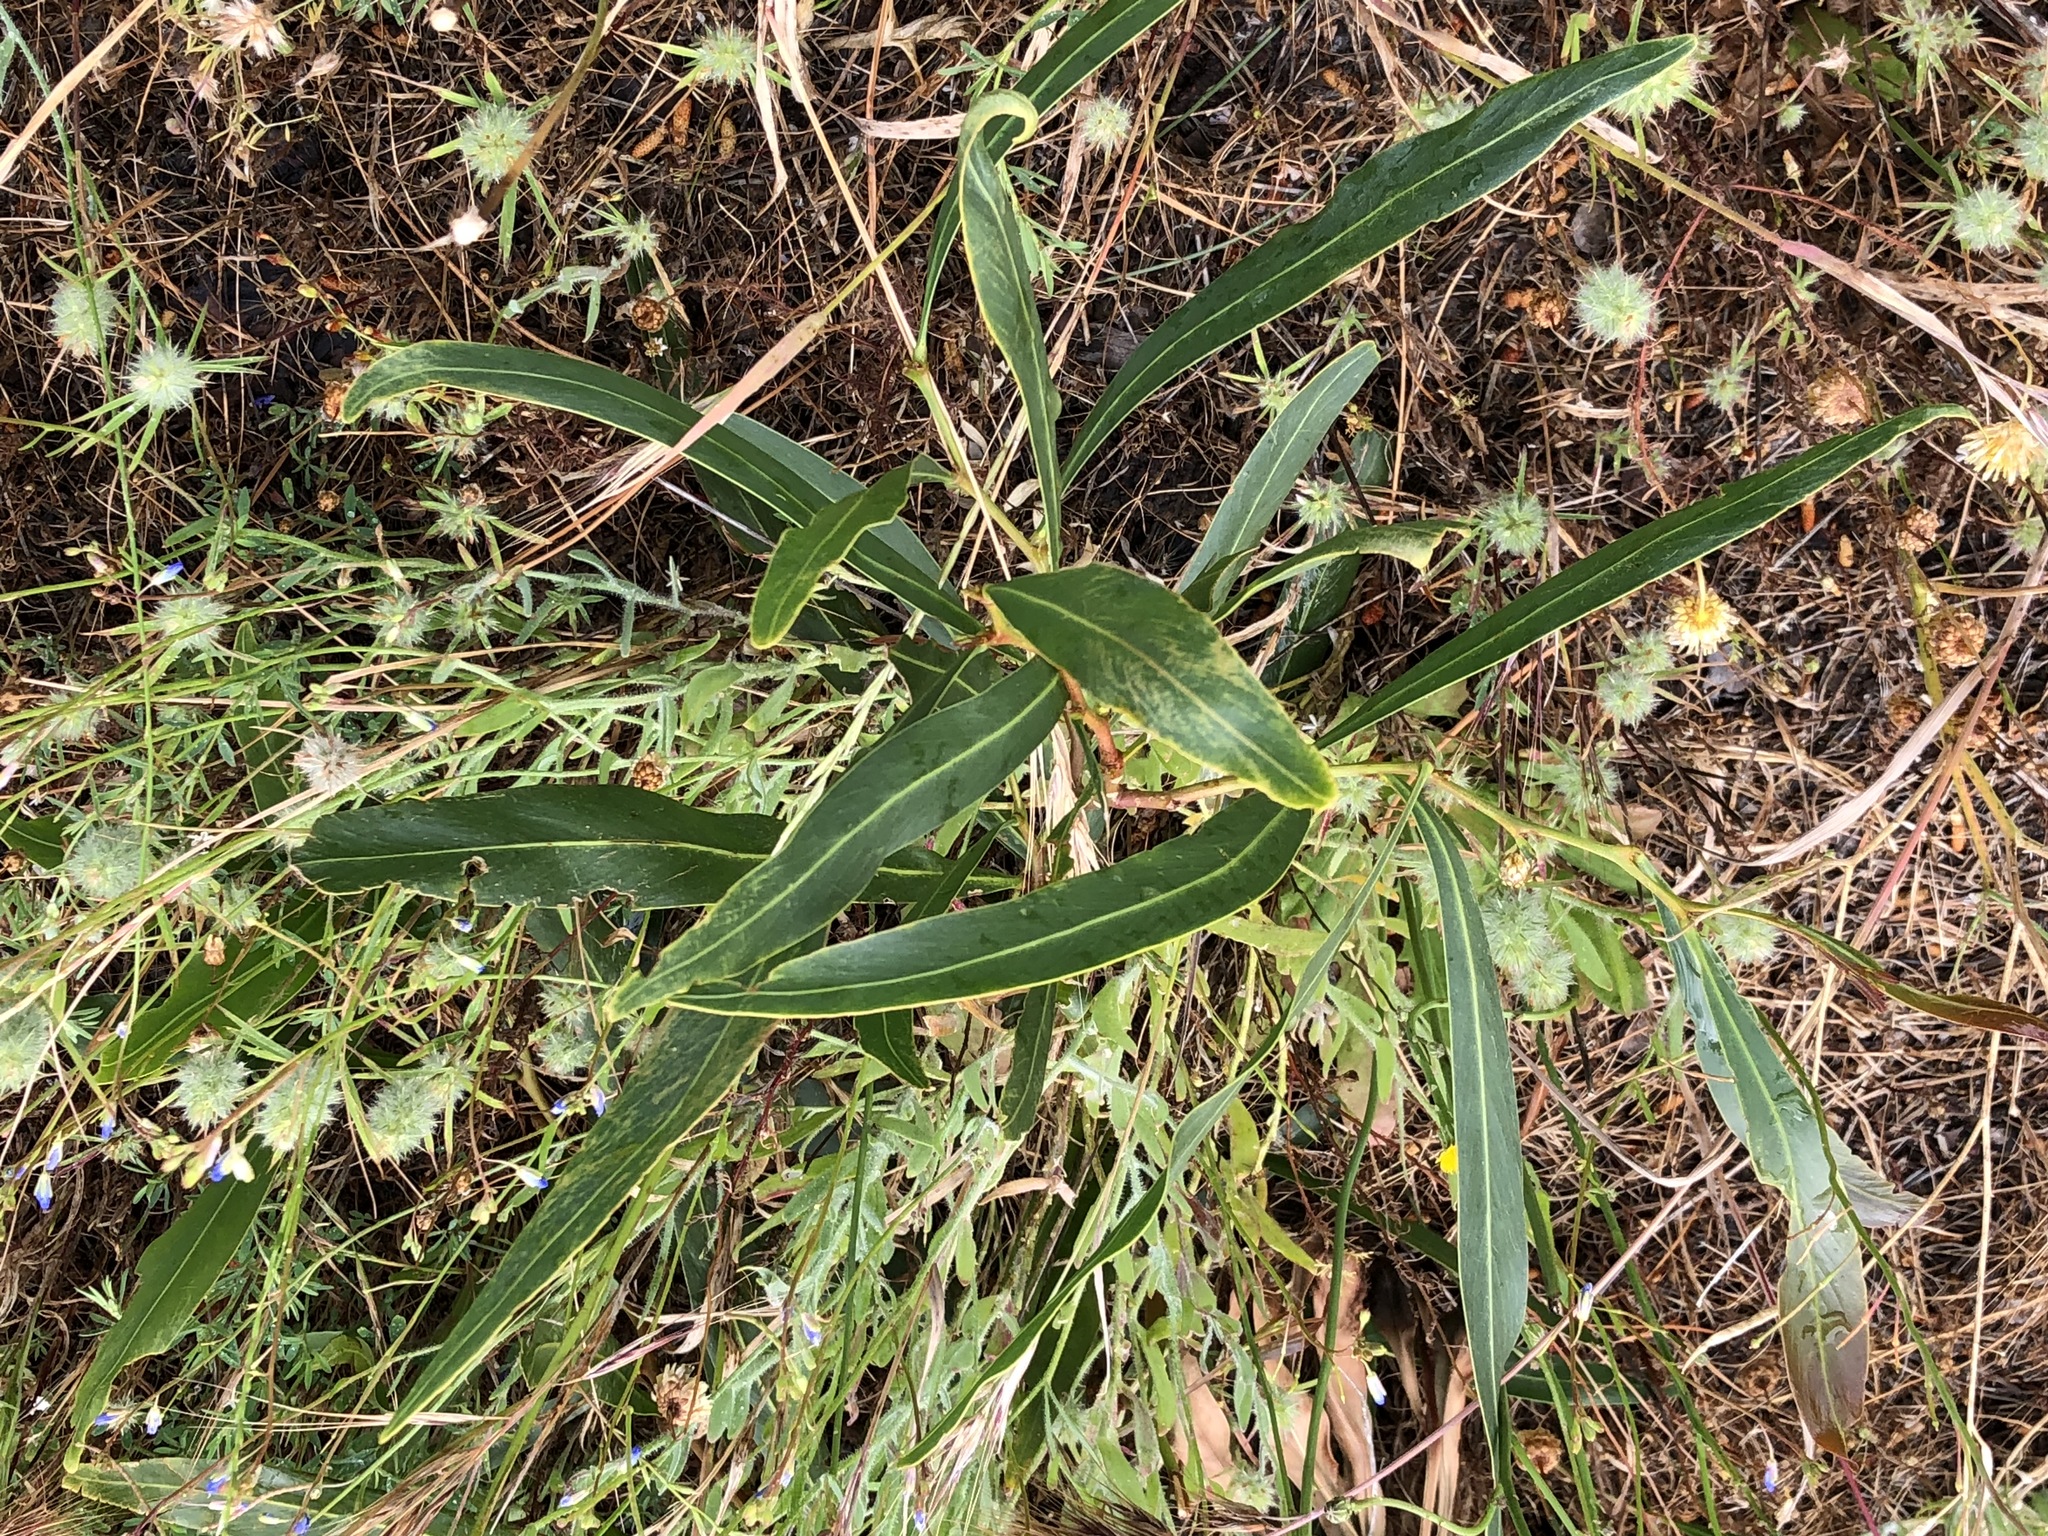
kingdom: Plantae
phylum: Tracheophyta
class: Magnoliopsida
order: Fabales
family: Fabaceae
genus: Acacia
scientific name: Acacia saligna
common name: Orange wattle
